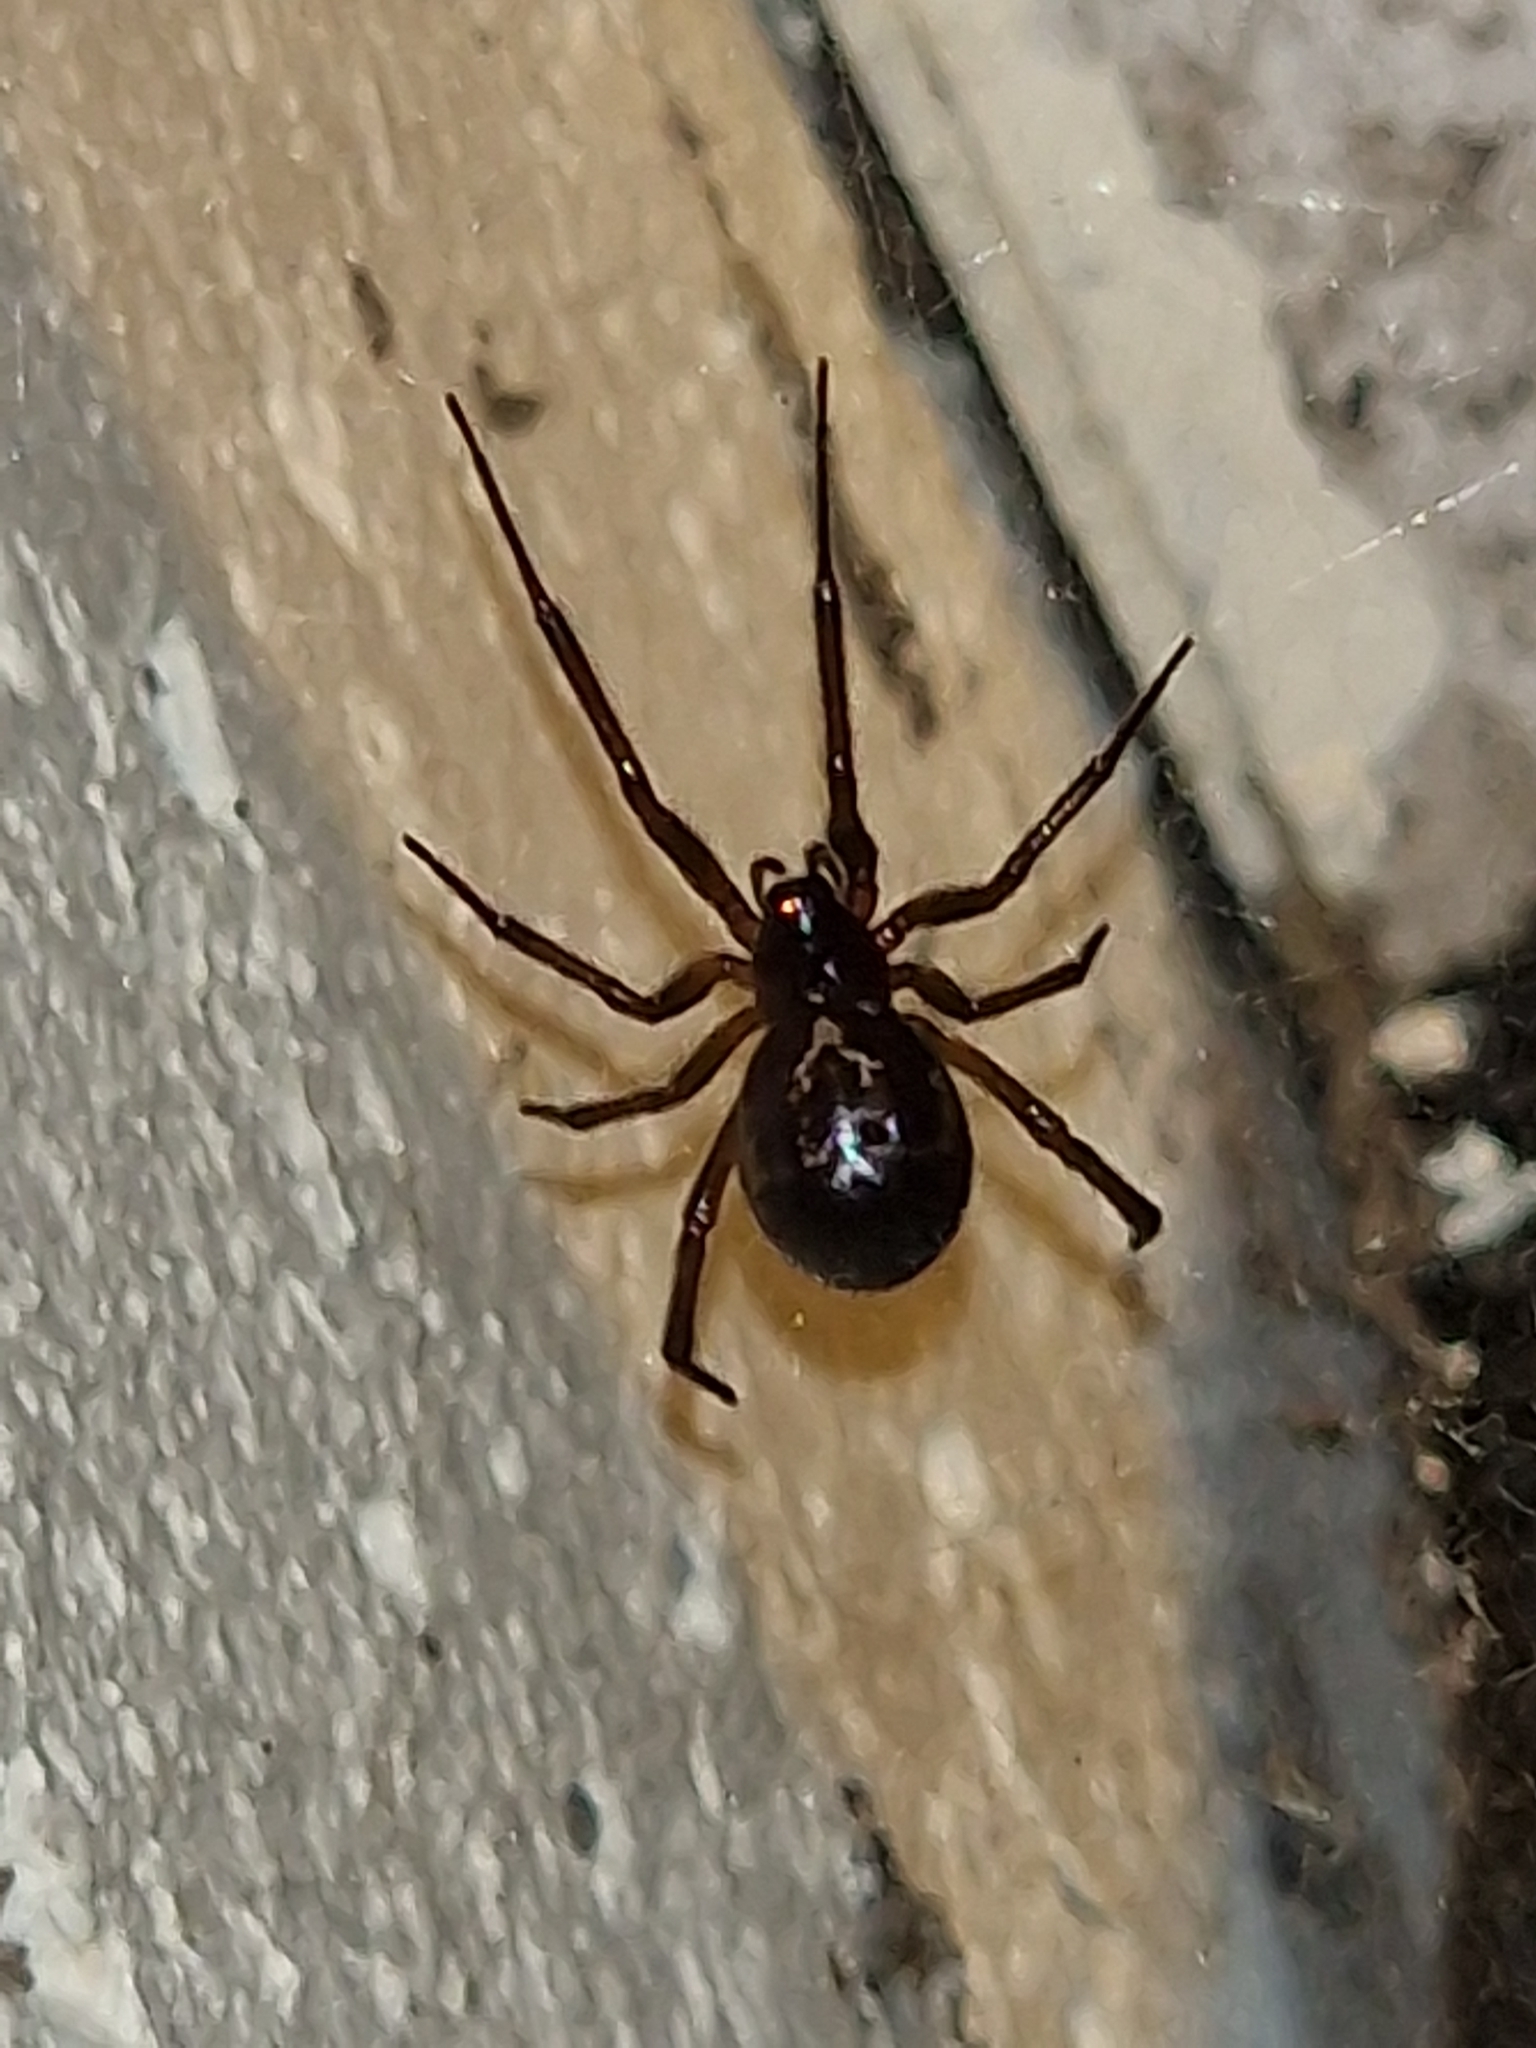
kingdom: Animalia
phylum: Arthropoda
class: Arachnida
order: Araneae
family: Theridiidae
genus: Steatoda
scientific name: Steatoda nobilis
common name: Cobweb weaver
